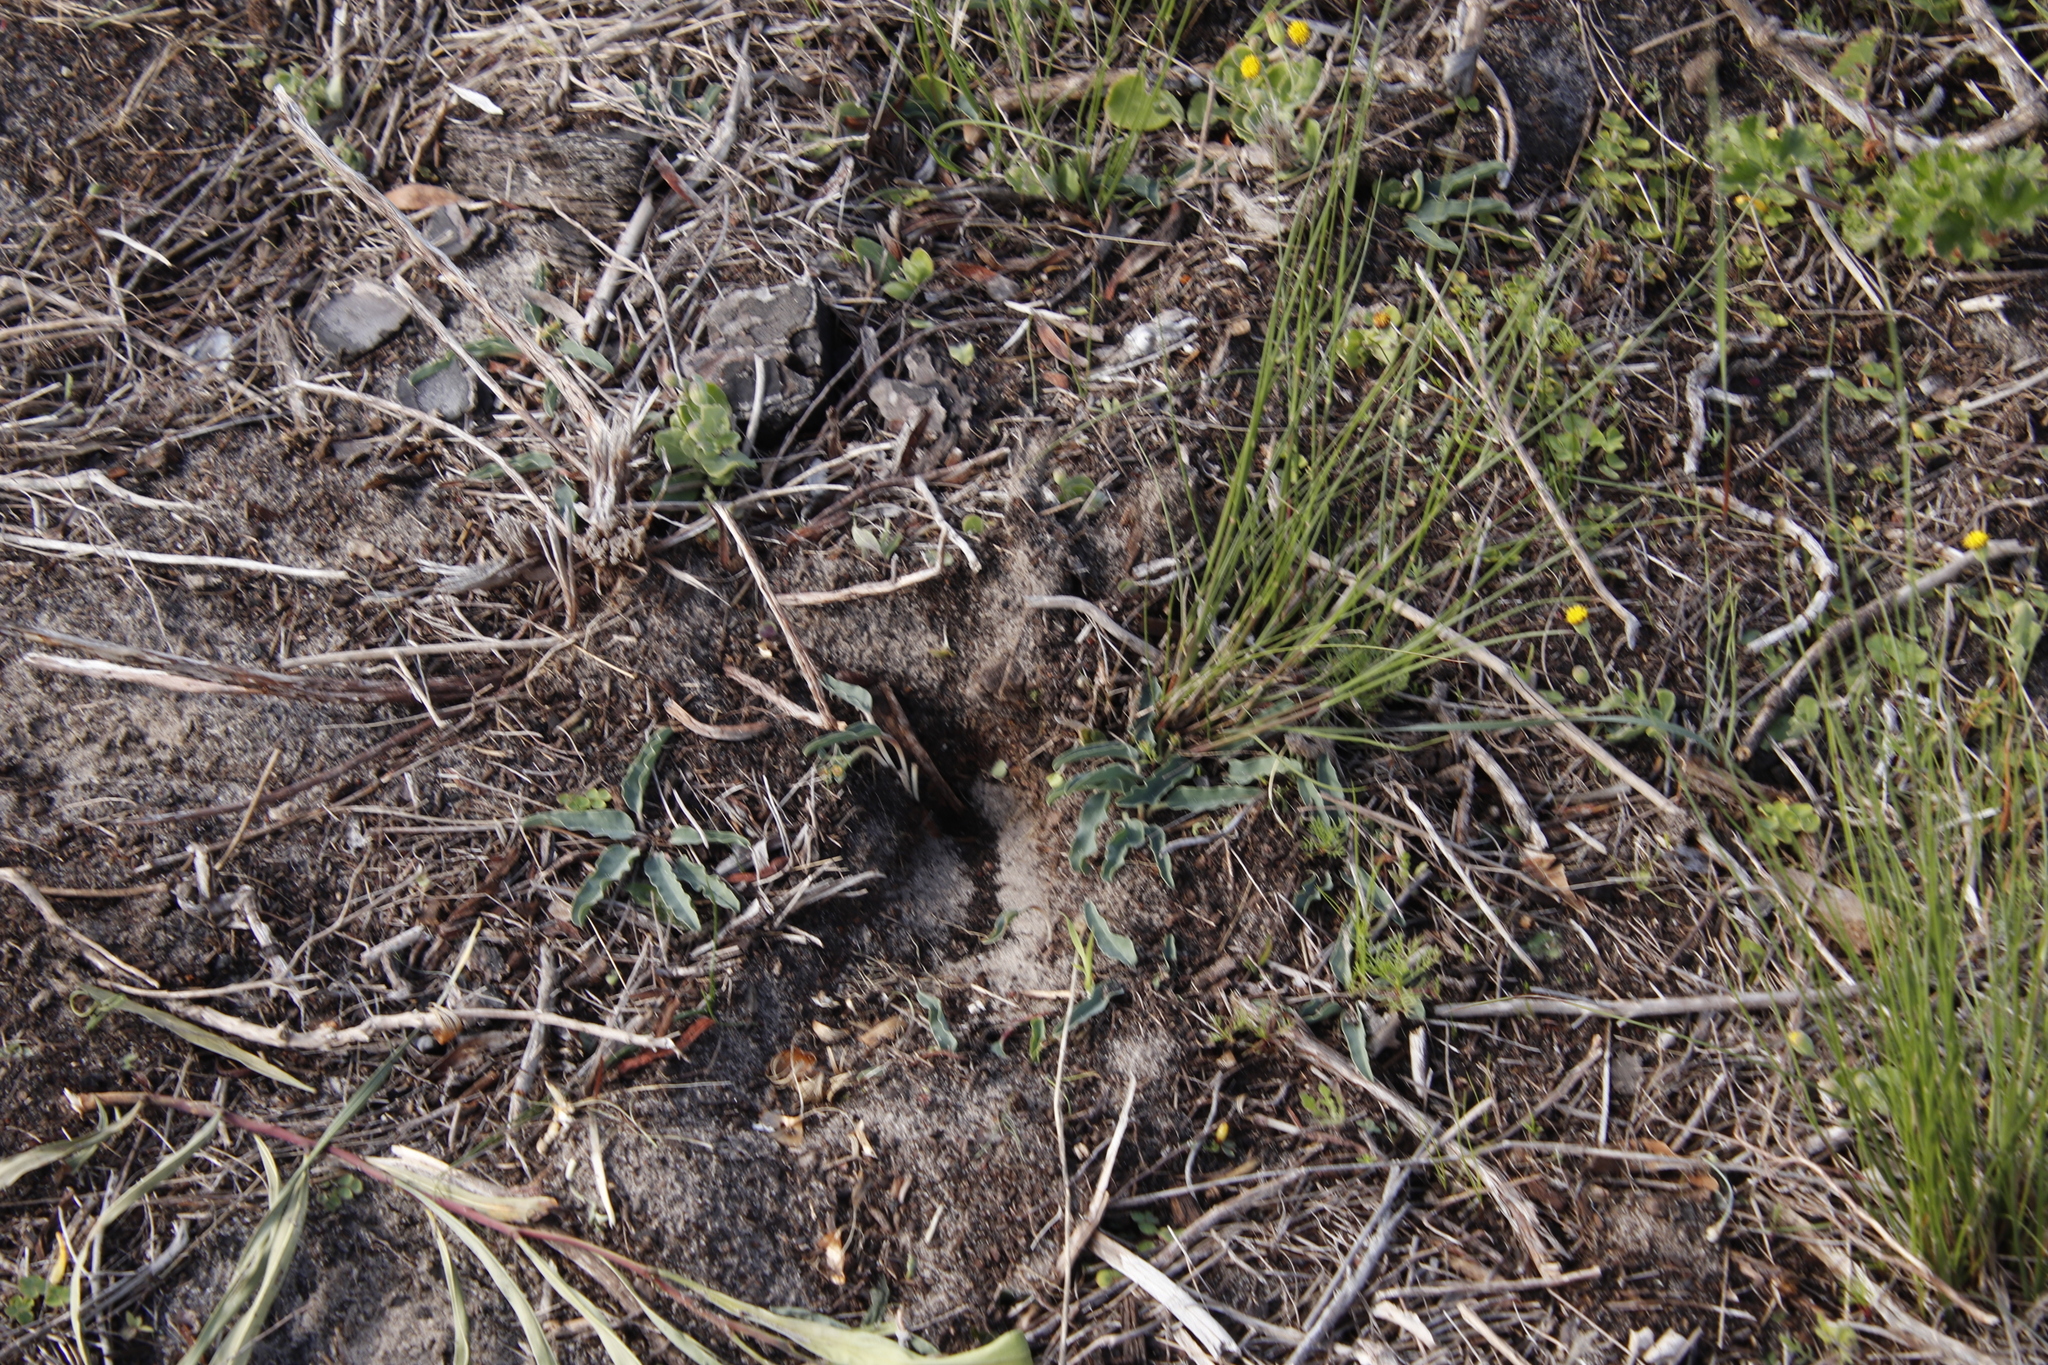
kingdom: Plantae
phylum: Tracheophyta
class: Magnoliopsida
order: Malpighiales
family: Euphorbiaceae
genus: Euphorbia
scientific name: Euphorbia tuberosa
